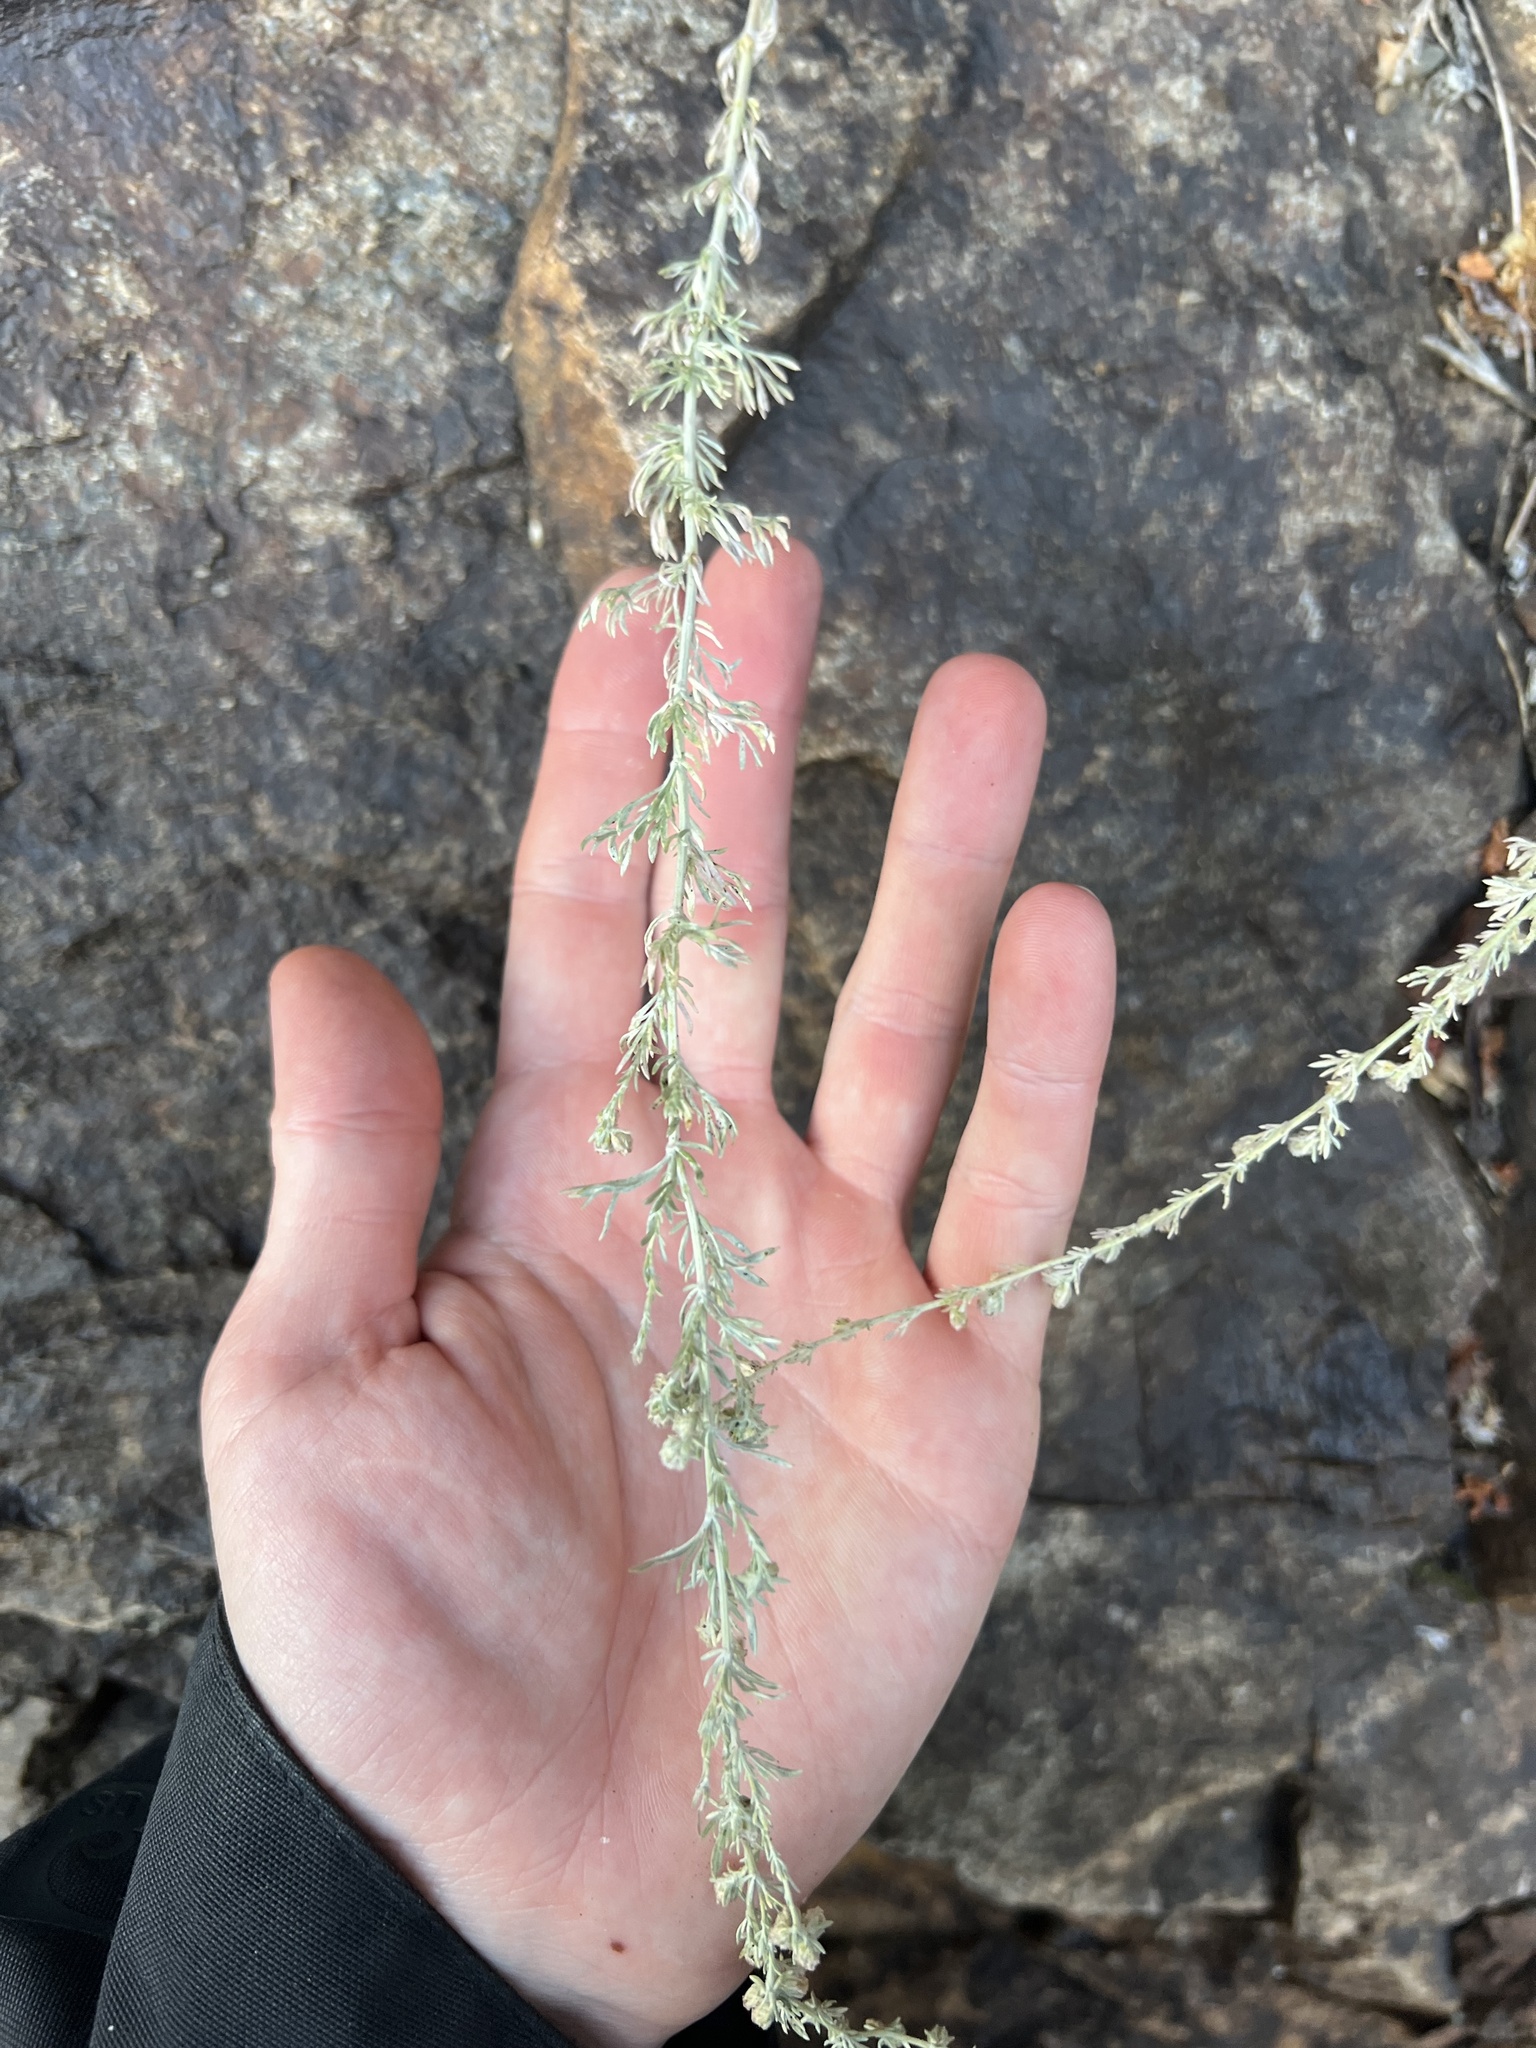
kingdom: Plantae
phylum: Tracheophyta
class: Magnoliopsida
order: Asterales
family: Asteraceae
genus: Artemisia
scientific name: Artemisia frigida
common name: Prairie sagewort
